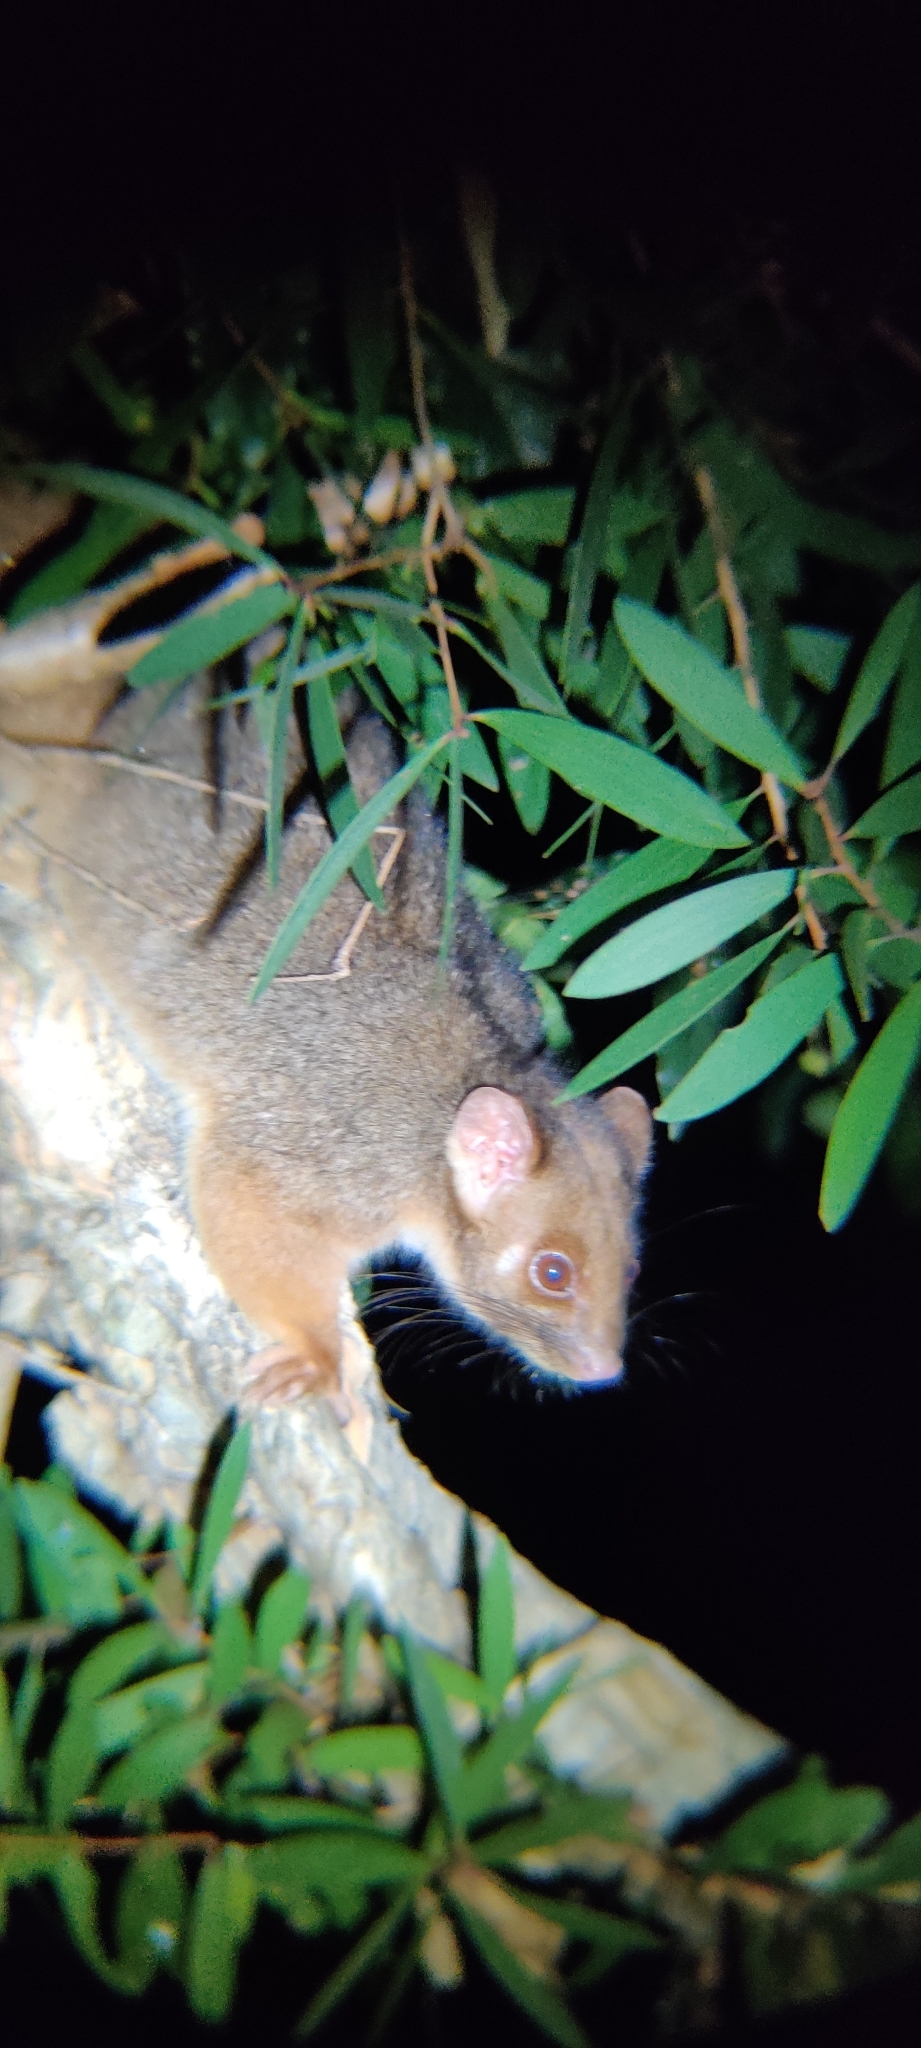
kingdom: Animalia
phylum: Chordata
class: Mammalia
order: Diprotodontia
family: Pseudocheiridae
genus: Pseudocheirus
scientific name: Pseudocheirus peregrinus
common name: Common ringtail possum
